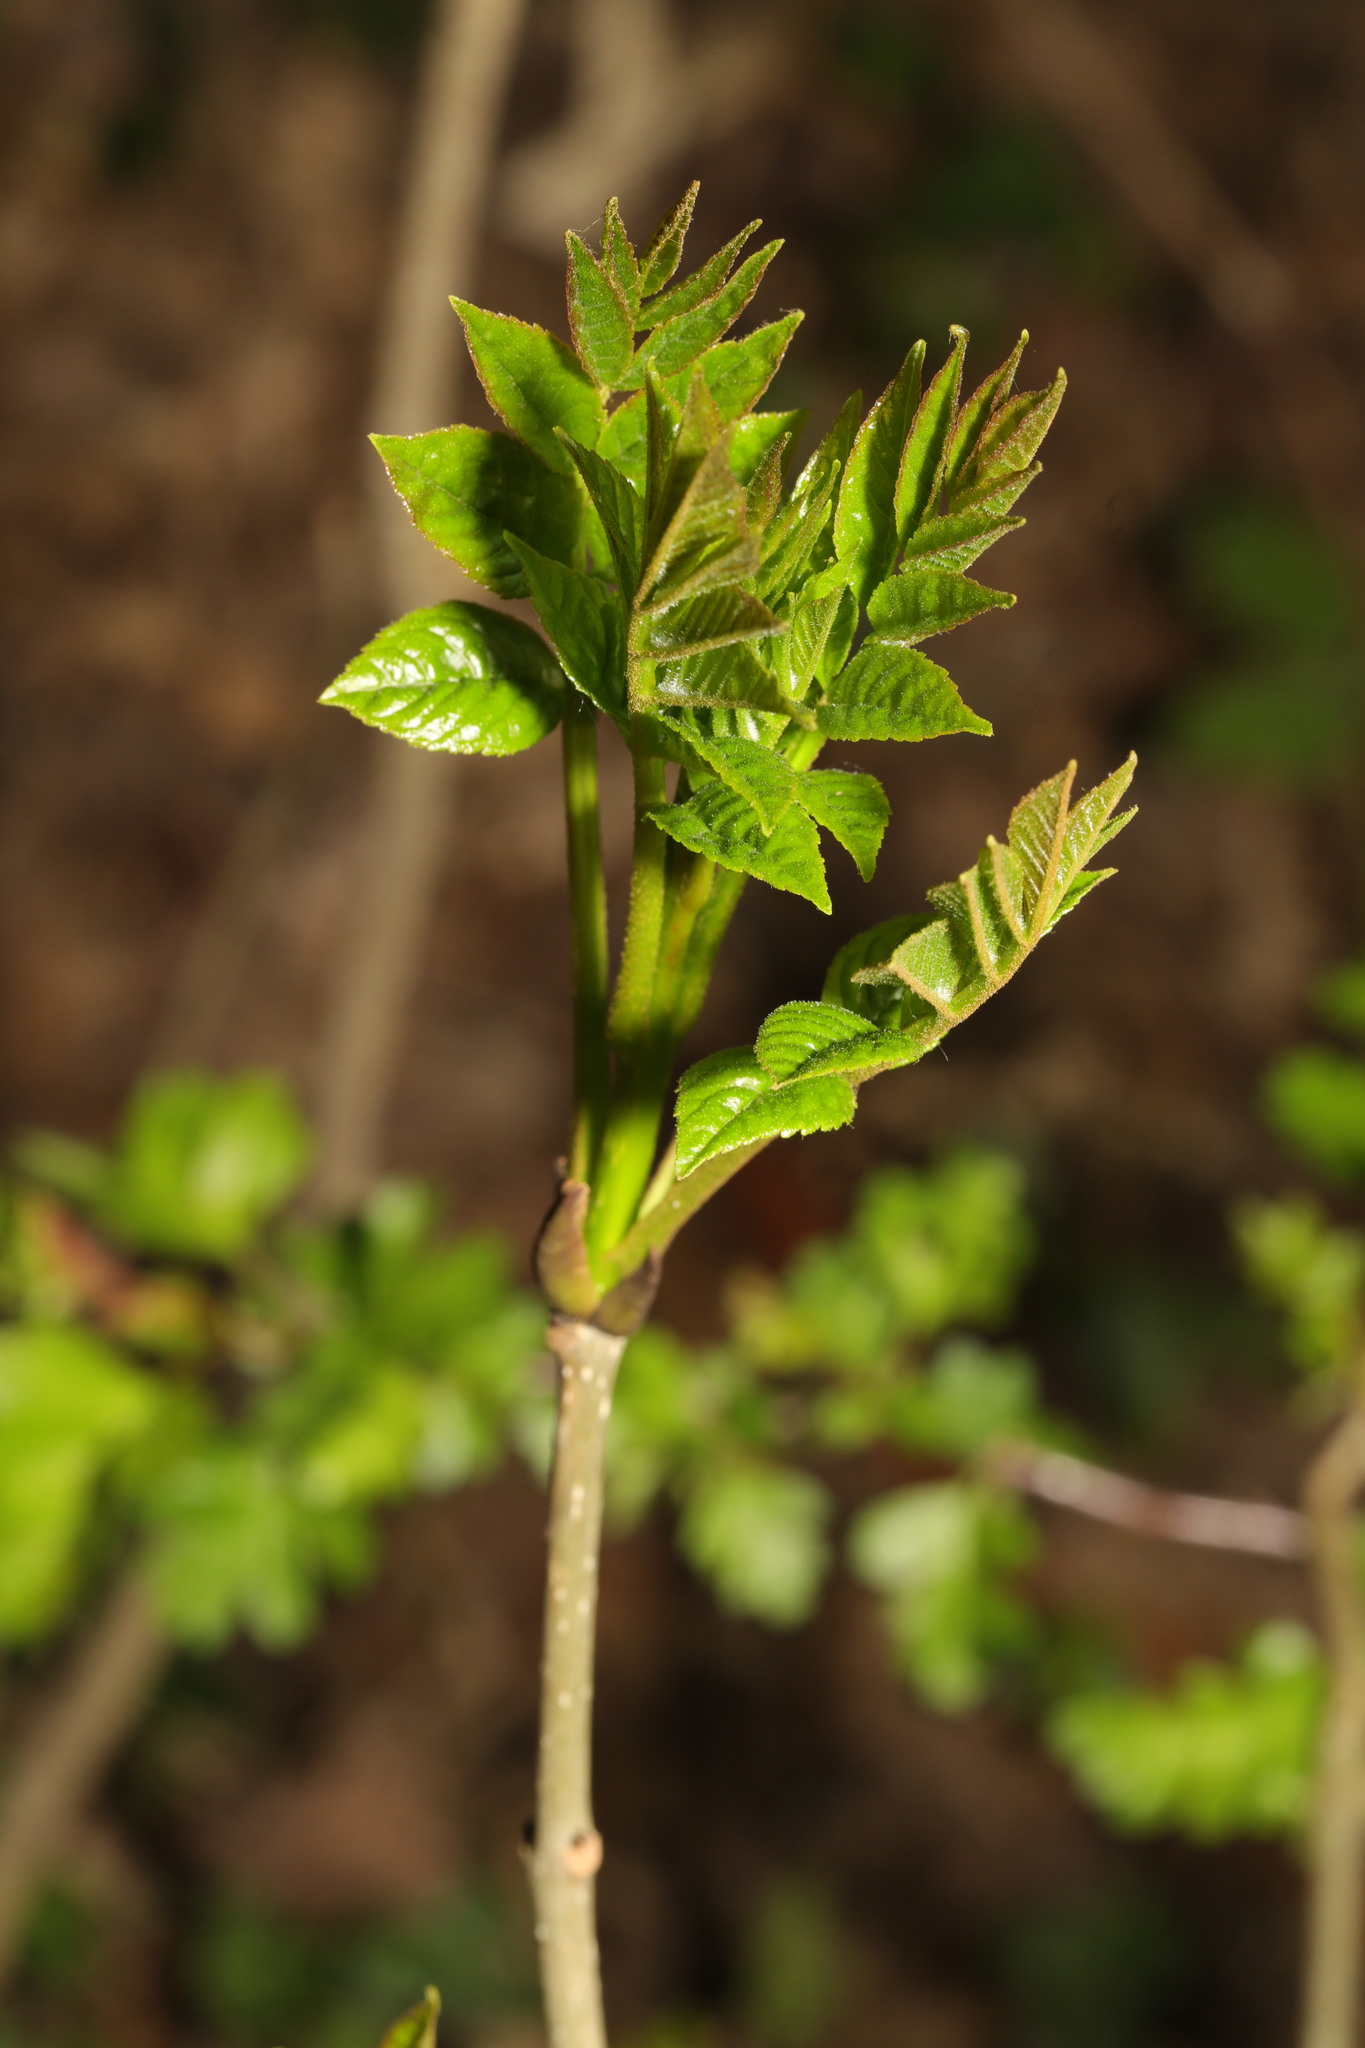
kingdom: Plantae
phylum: Tracheophyta
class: Magnoliopsida
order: Lamiales
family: Oleaceae
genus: Fraxinus
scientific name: Fraxinus excelsior
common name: European ash
